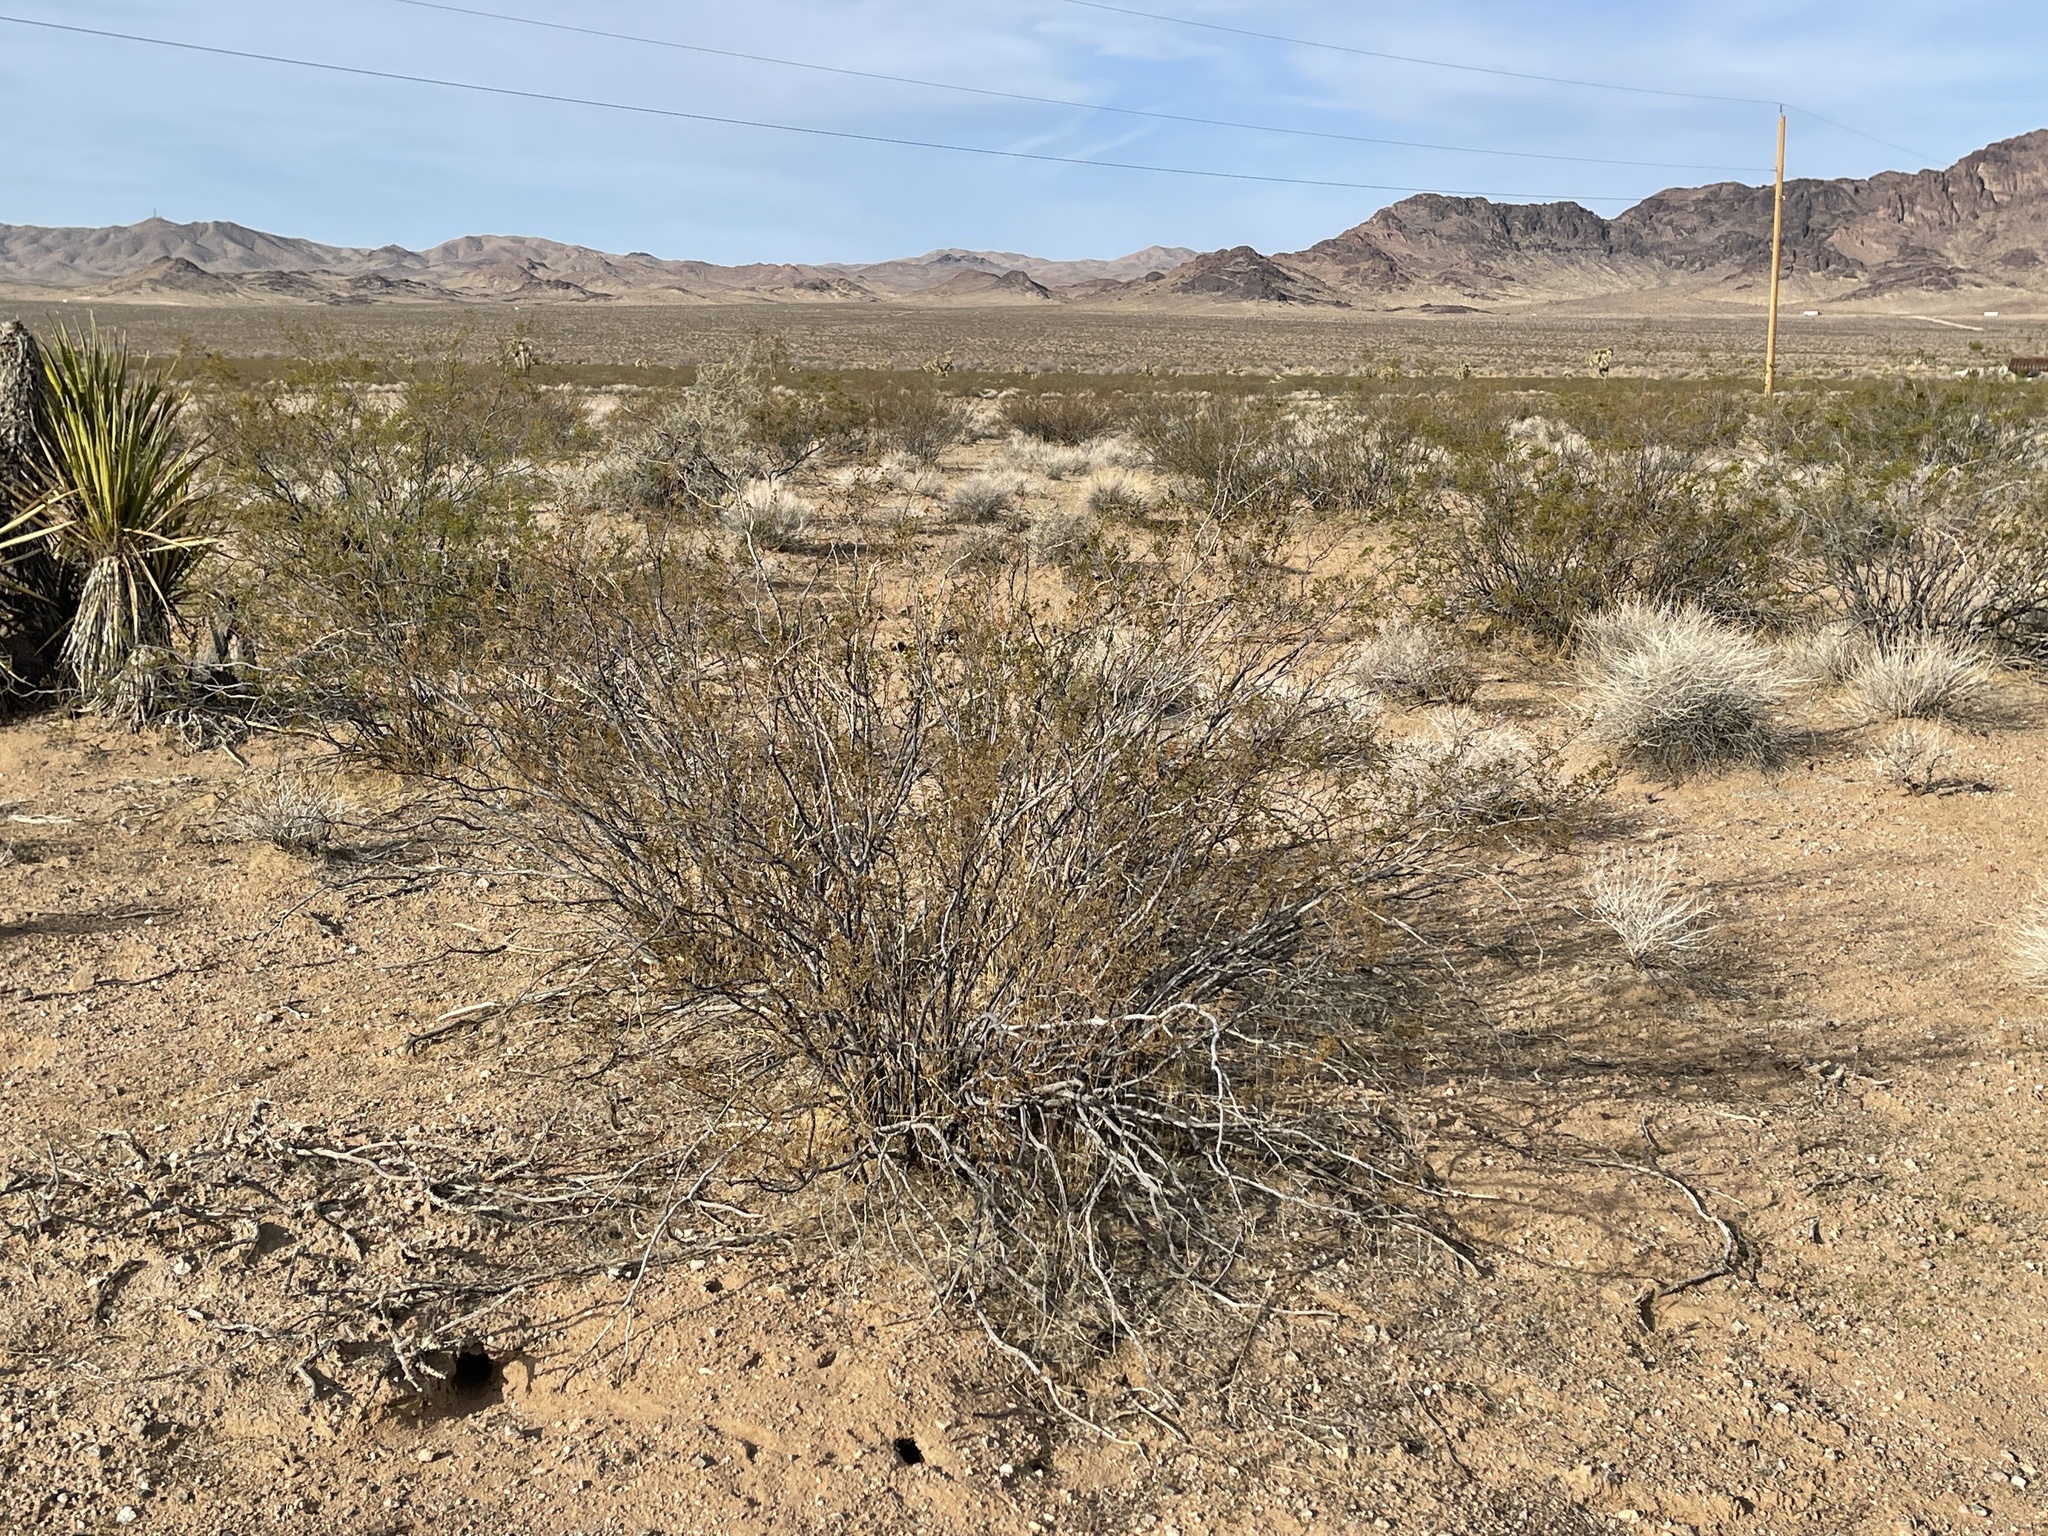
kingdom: Plantae
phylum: Tracheophyta
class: Magnoliopsida
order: Zygophyllales
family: Zygophyllaceae
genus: Larrea
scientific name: Larrea tridentata
